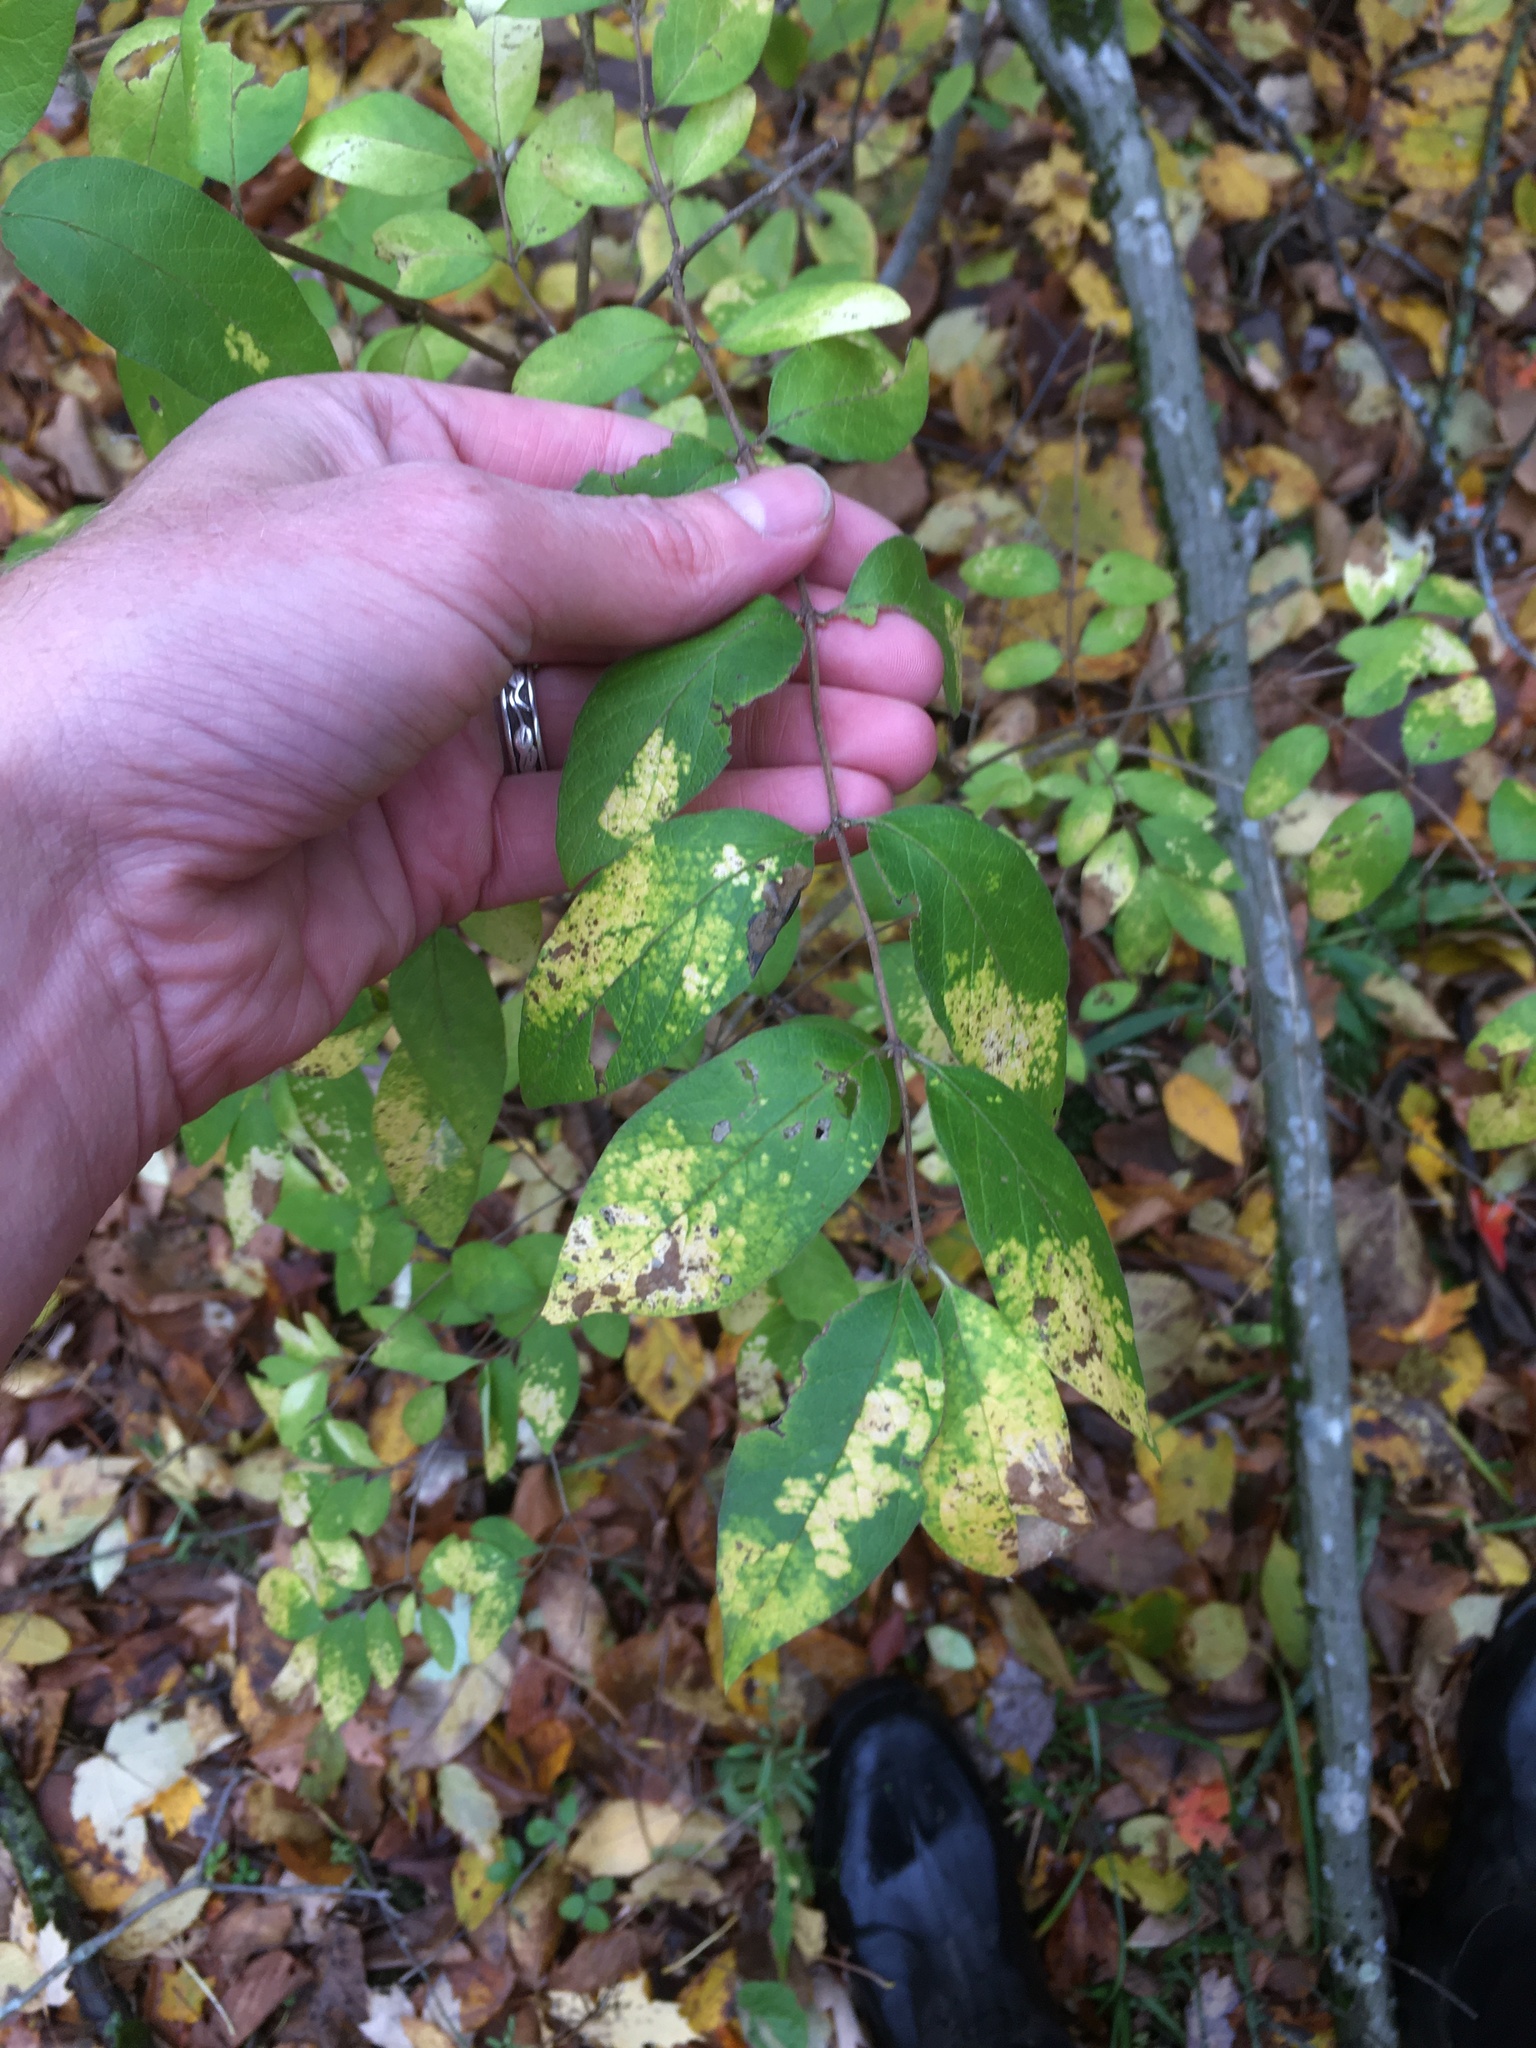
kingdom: Fungi
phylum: Basidiomycota
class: Pucciniomycetes
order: Platygloeales
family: Platygloeaceae
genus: Insolibasidium
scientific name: Insolibasidium deformans
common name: Honeysuckle leaf blight
